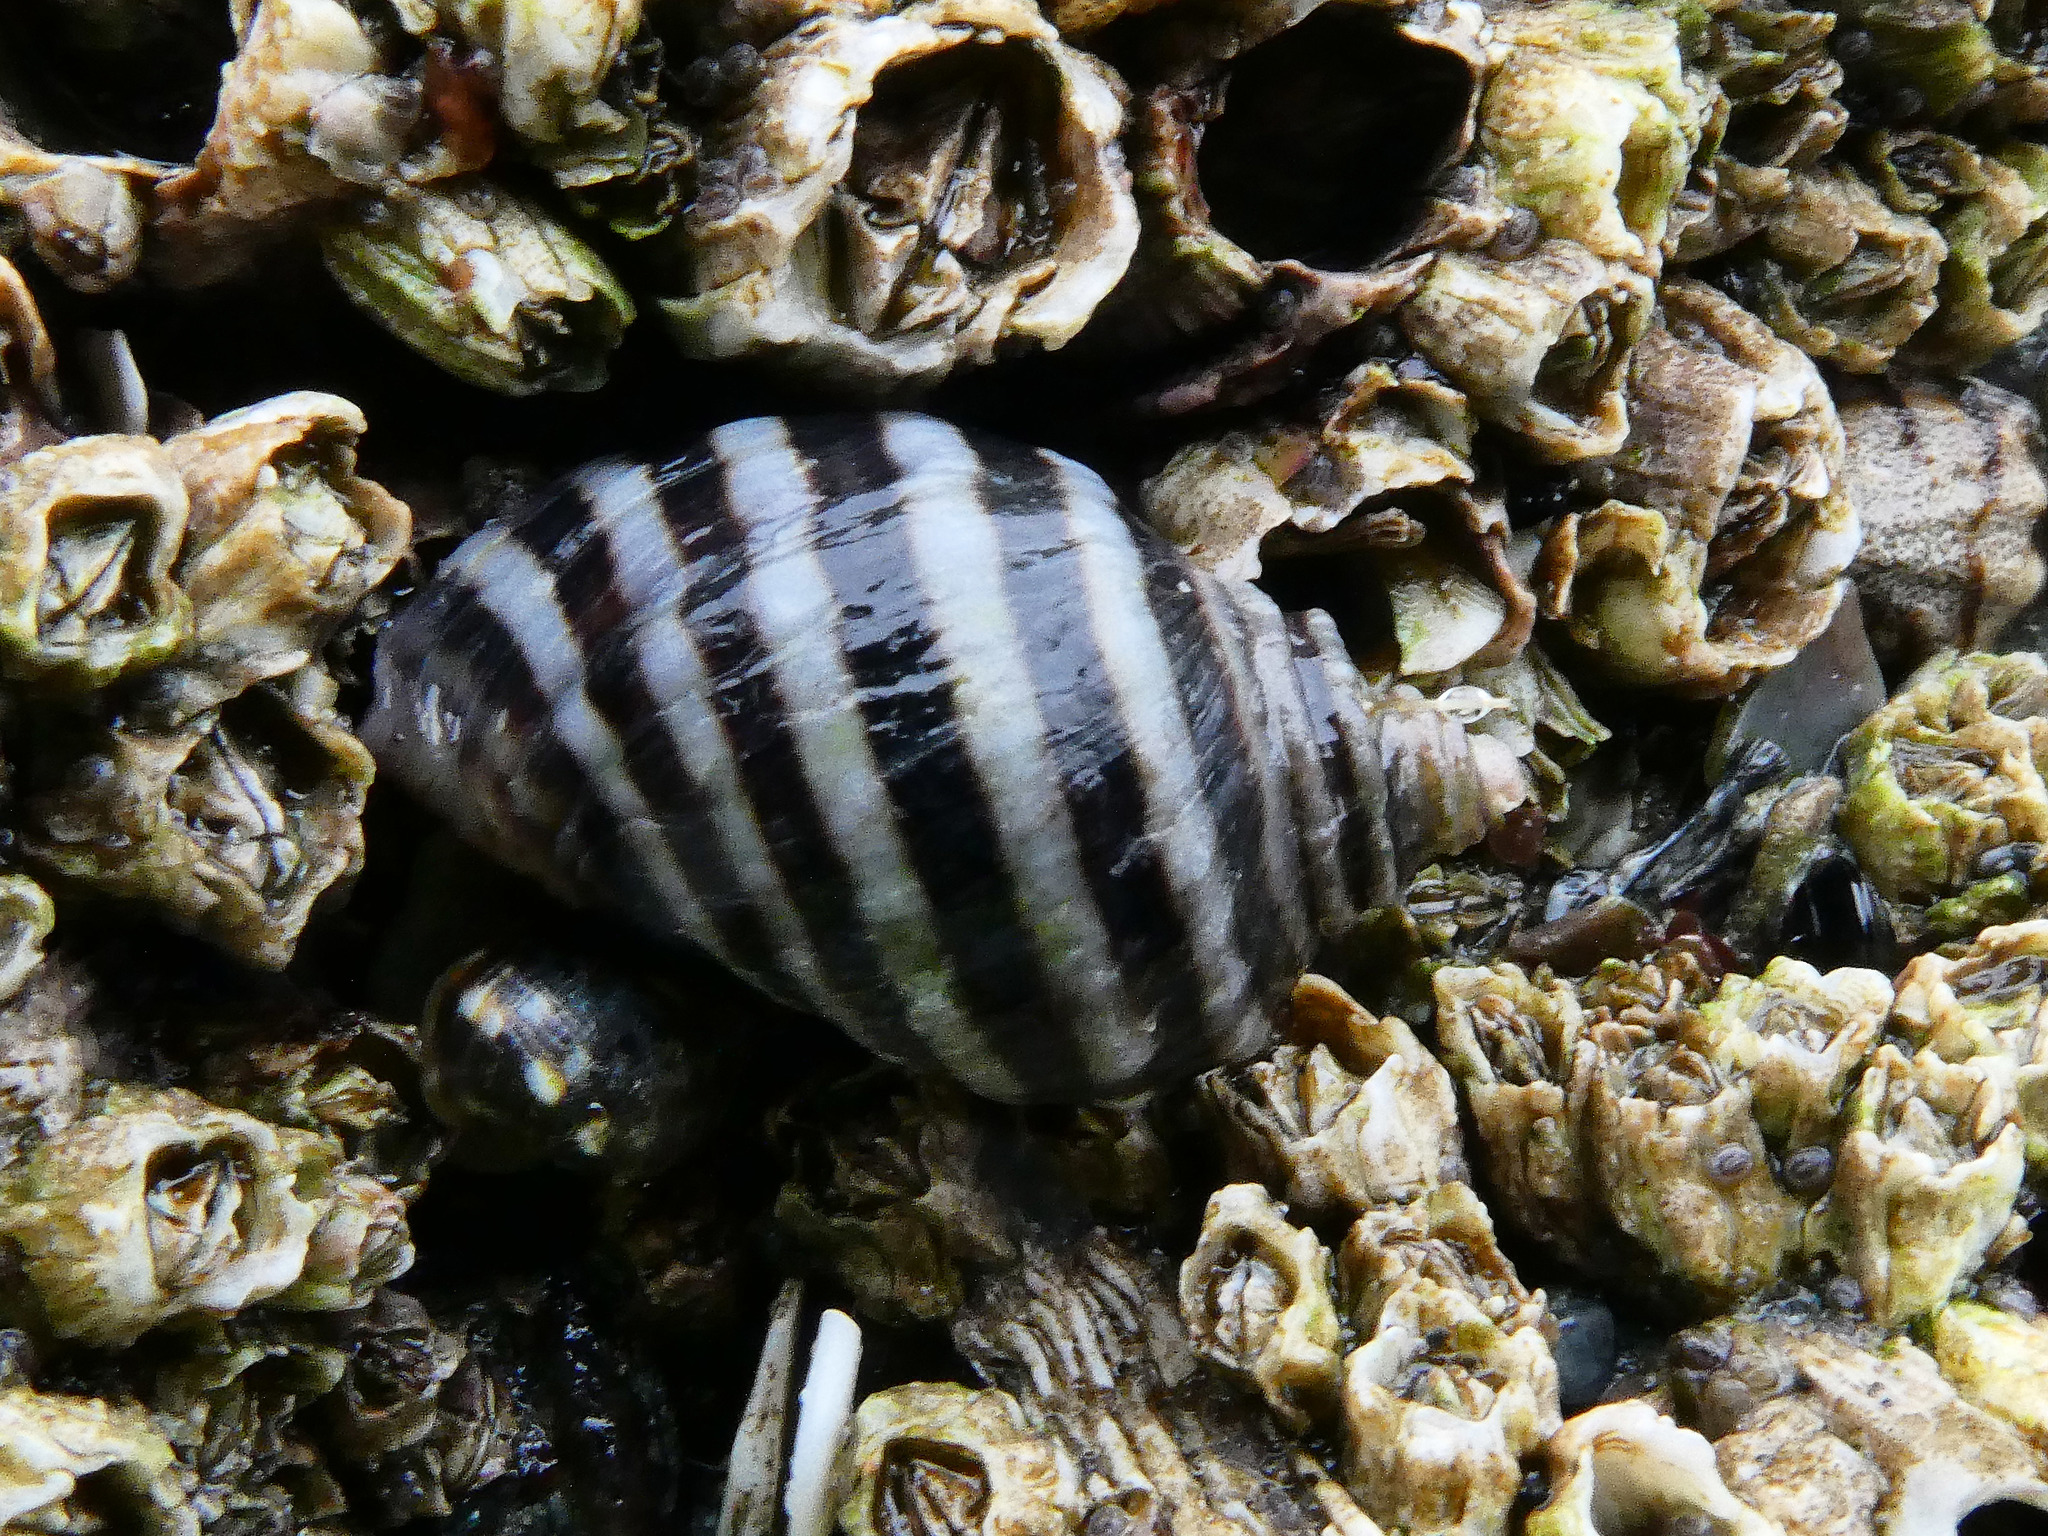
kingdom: Animalia
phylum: Mollusca
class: Gastropoda
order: Neogastropoda
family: Muricidae
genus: Nucella
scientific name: Nucella ostrina
